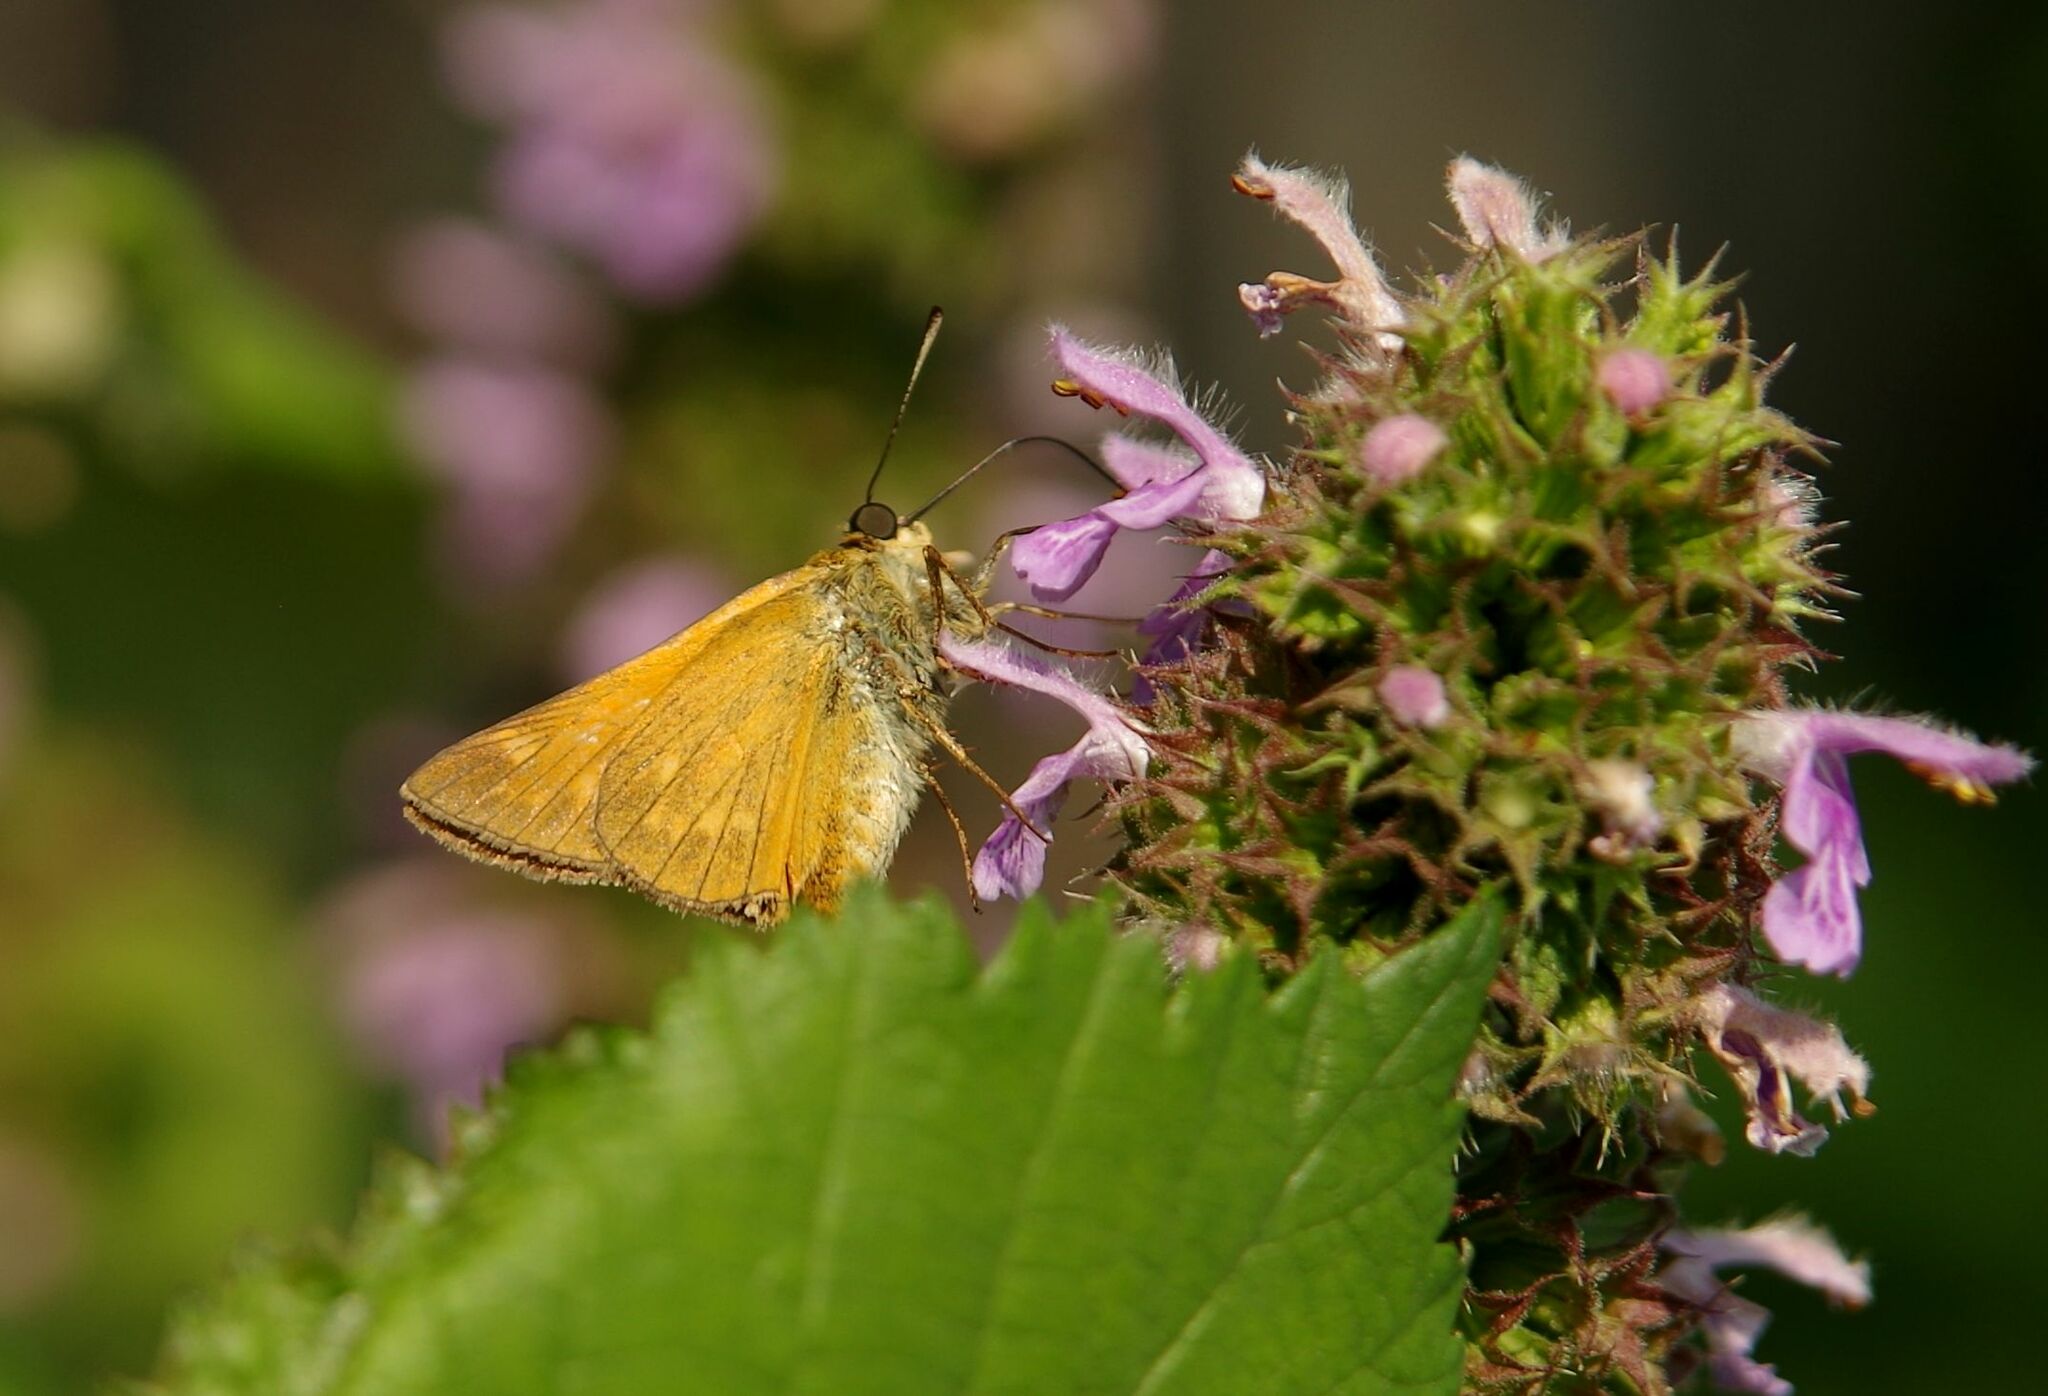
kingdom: Animalia
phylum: Arthropoda
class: Insecta
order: Lepidoptera
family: Hesperiidae
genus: Ochlodes
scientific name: Ochlodes venata
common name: Large skipper
